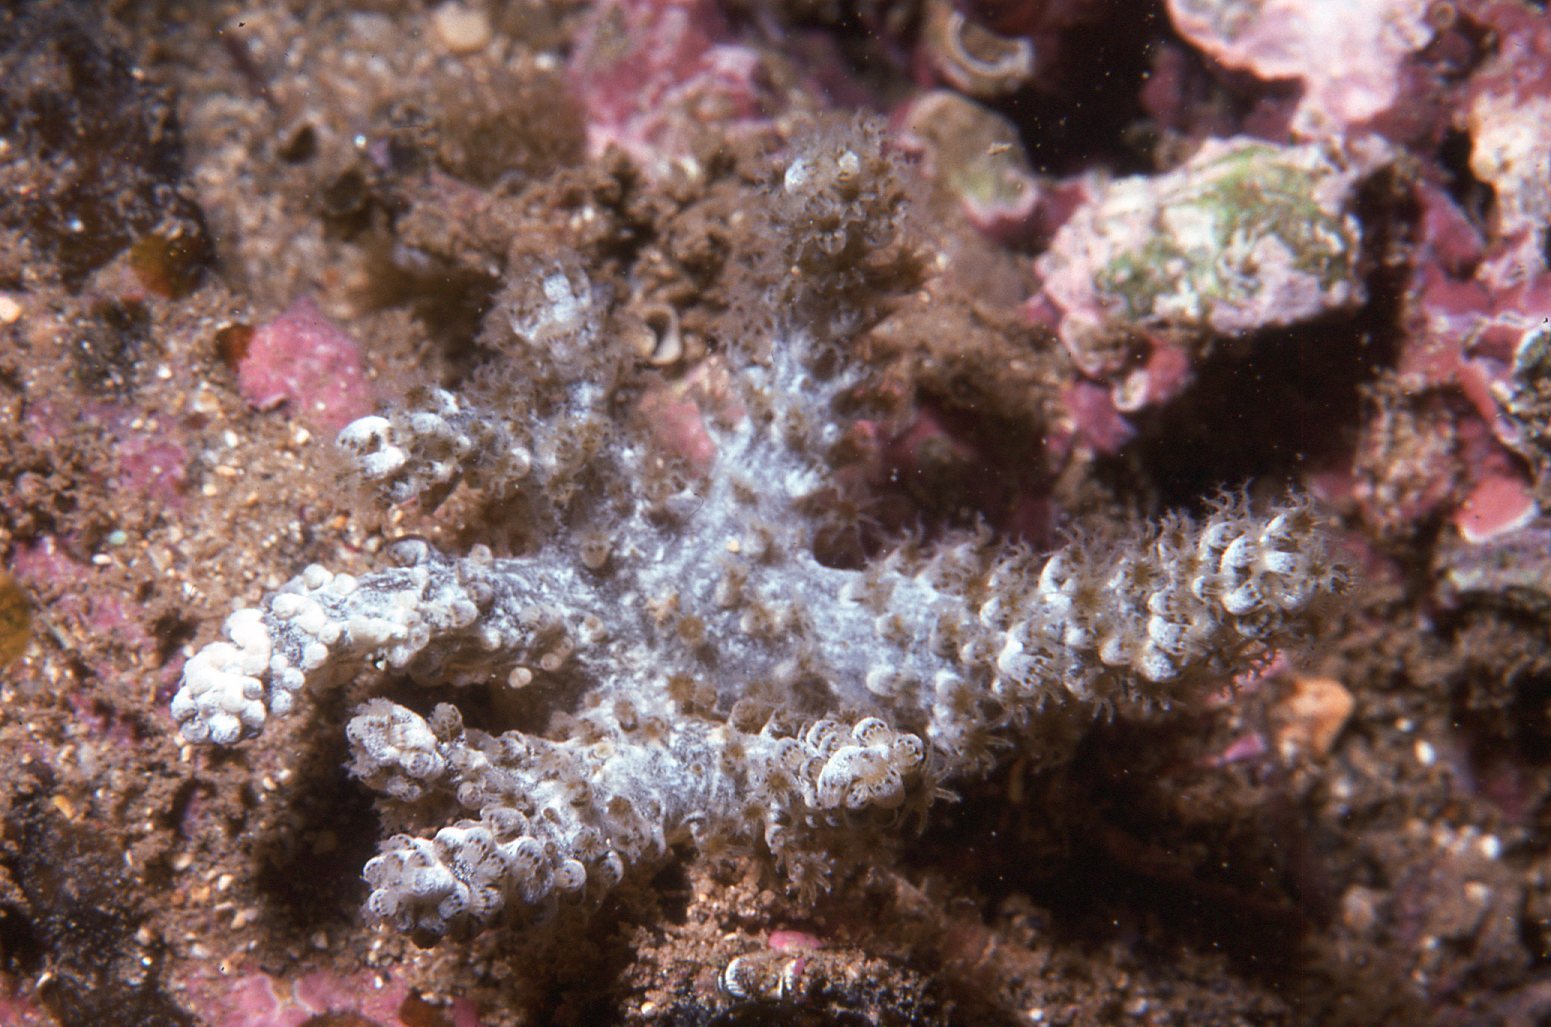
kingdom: Animalia
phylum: Cnidaria
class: Anthozoa
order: Malacalcyonacea
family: Capnellidae
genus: Capnella
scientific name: Capnella gaboensis
